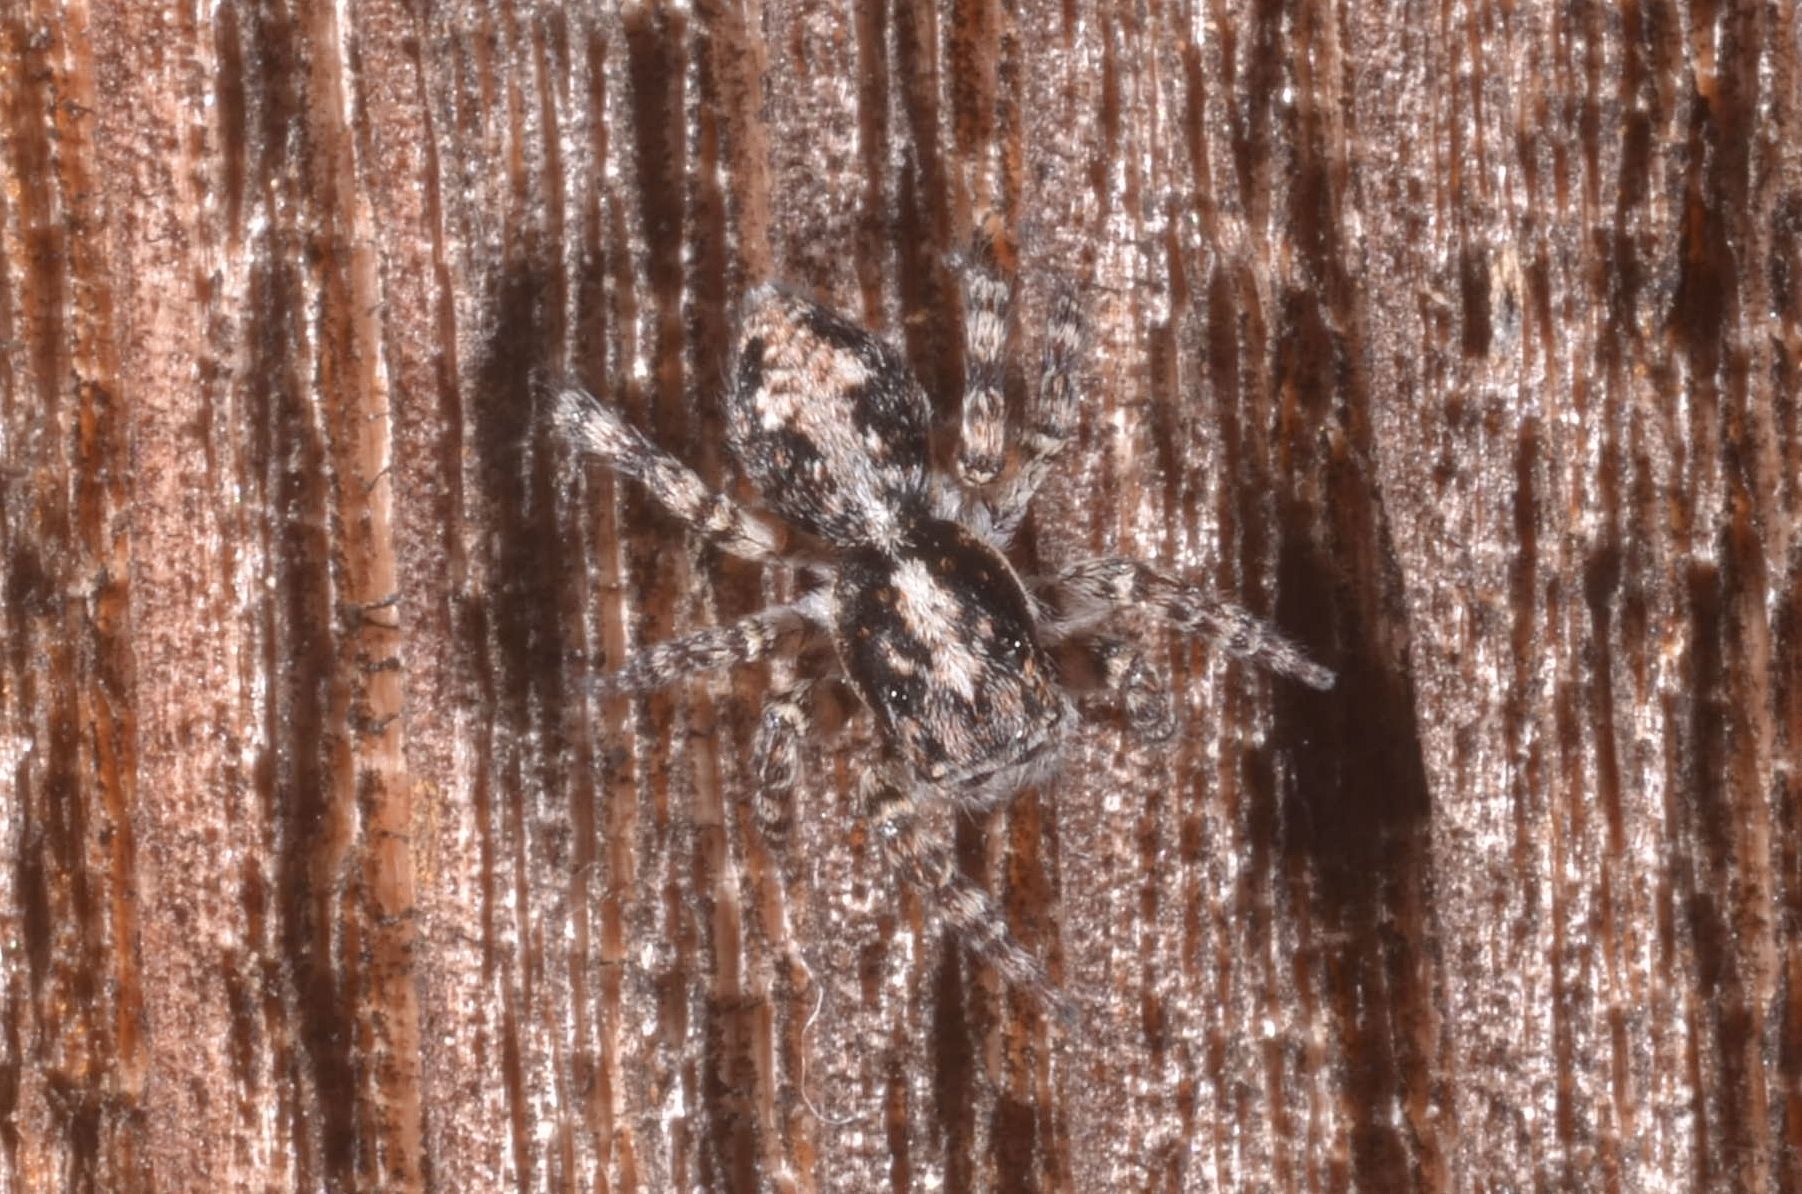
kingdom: Animalia
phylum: Arthropoda
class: Arachnida
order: Araneae
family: Salticidae
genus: Attulus
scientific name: Attulus terebratus
